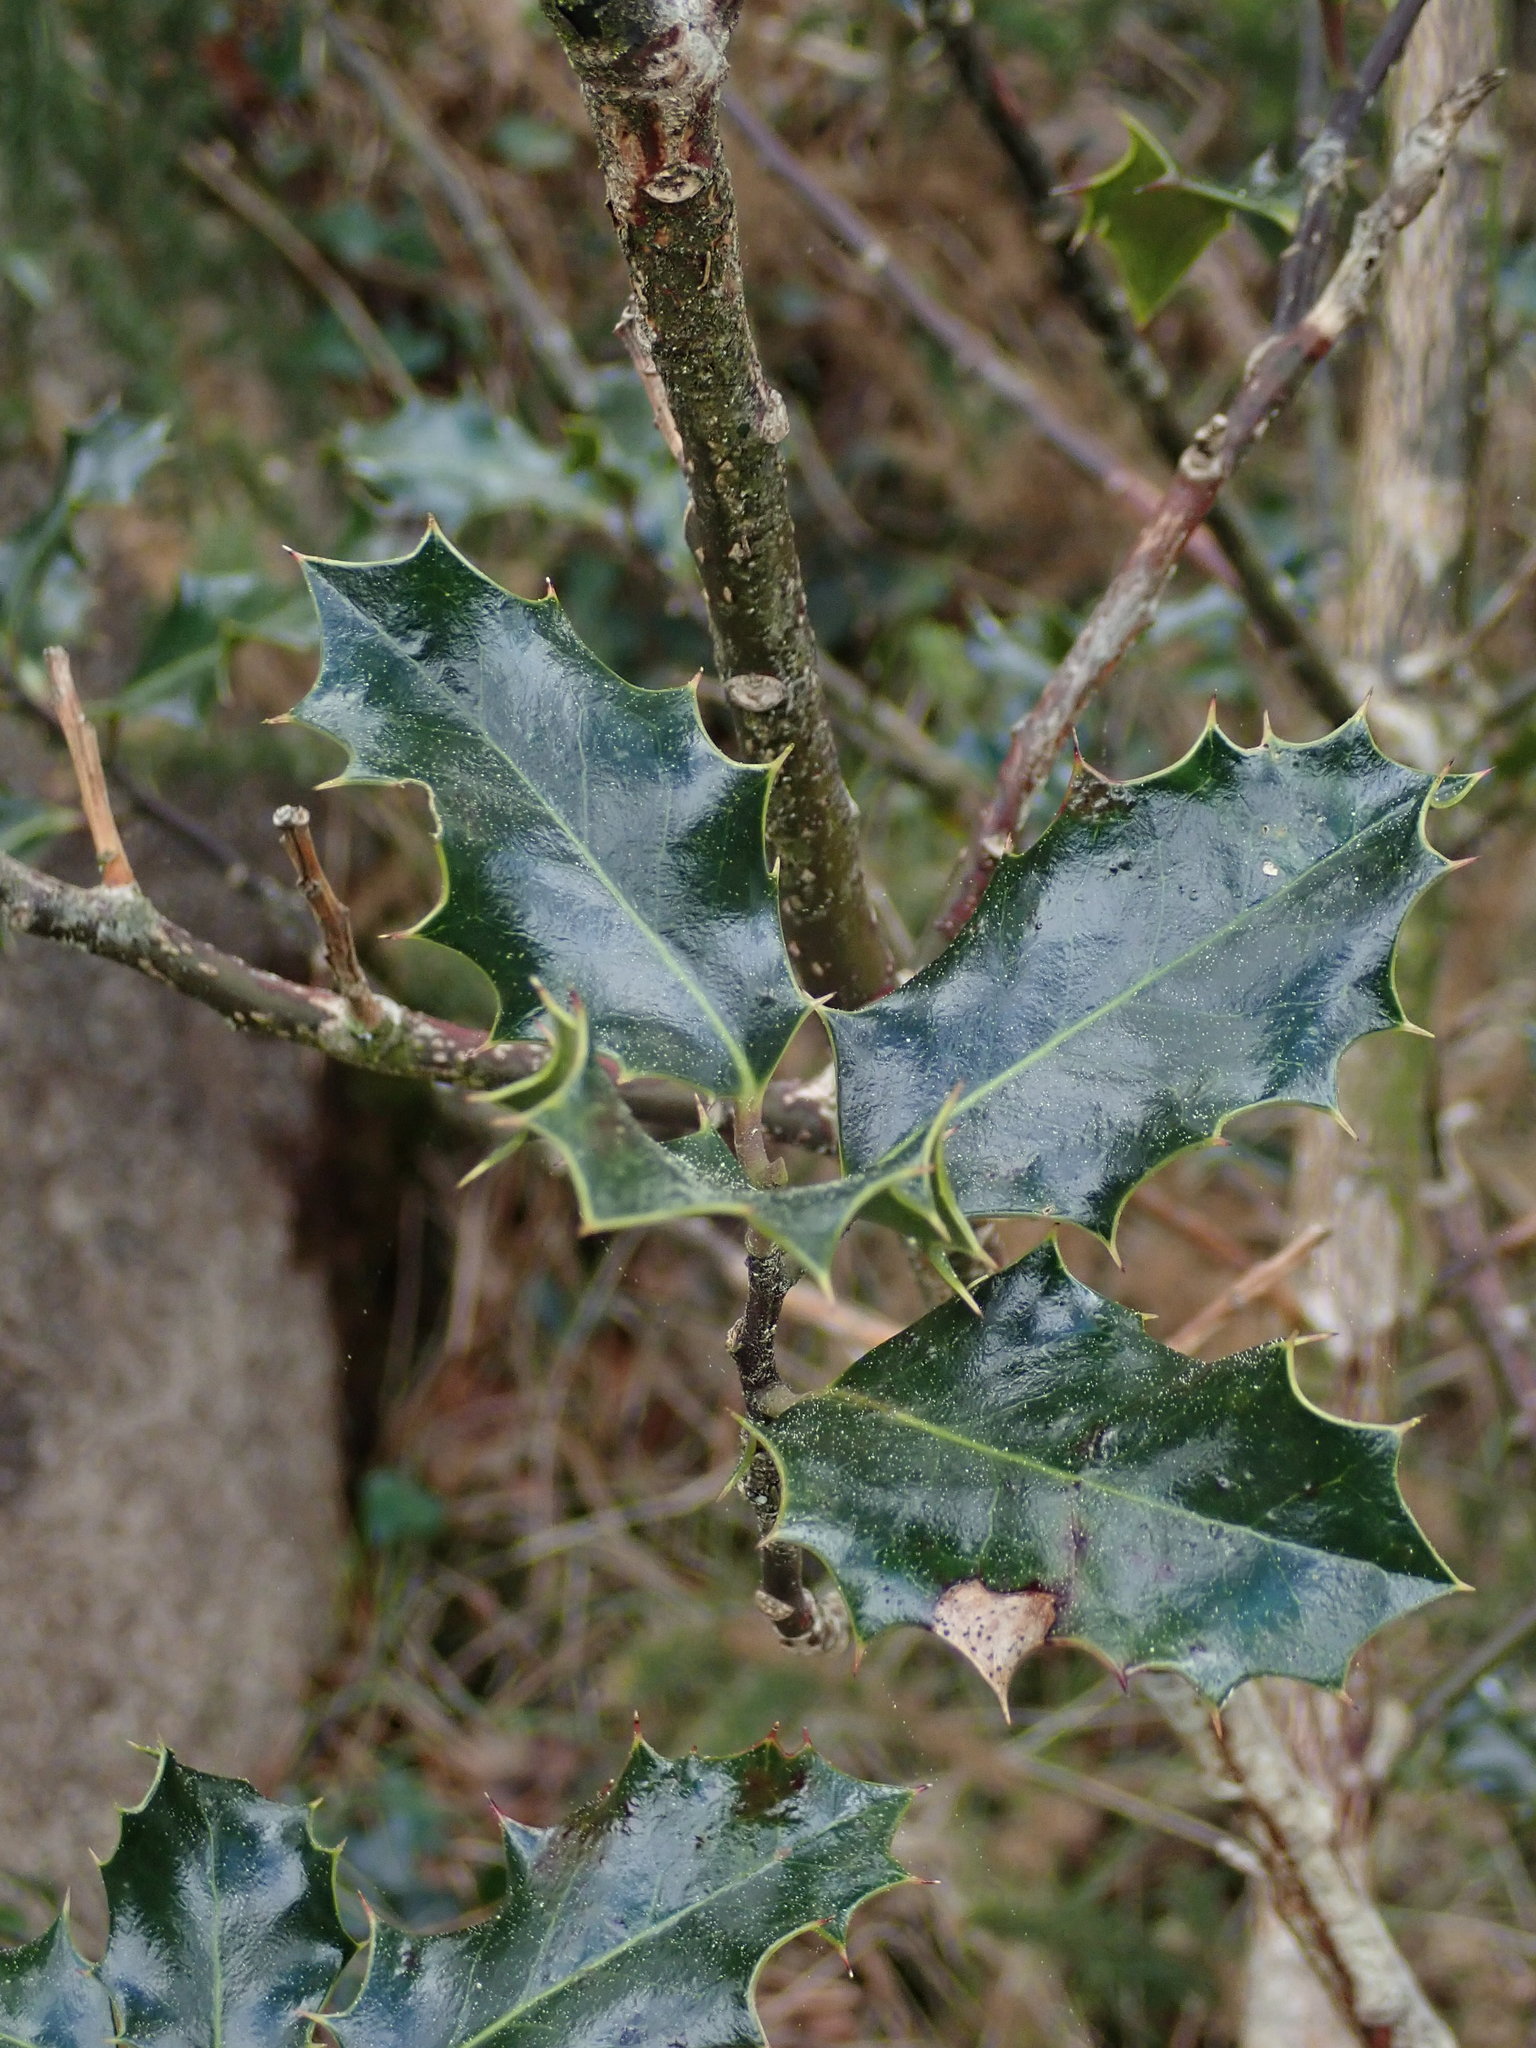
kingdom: Plantae
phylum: Tracheophyta
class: Magnoliopsida
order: Aquifoliales
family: Aquifoliaceae
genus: Ilex
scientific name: Ilex aquifolium
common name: English holly
